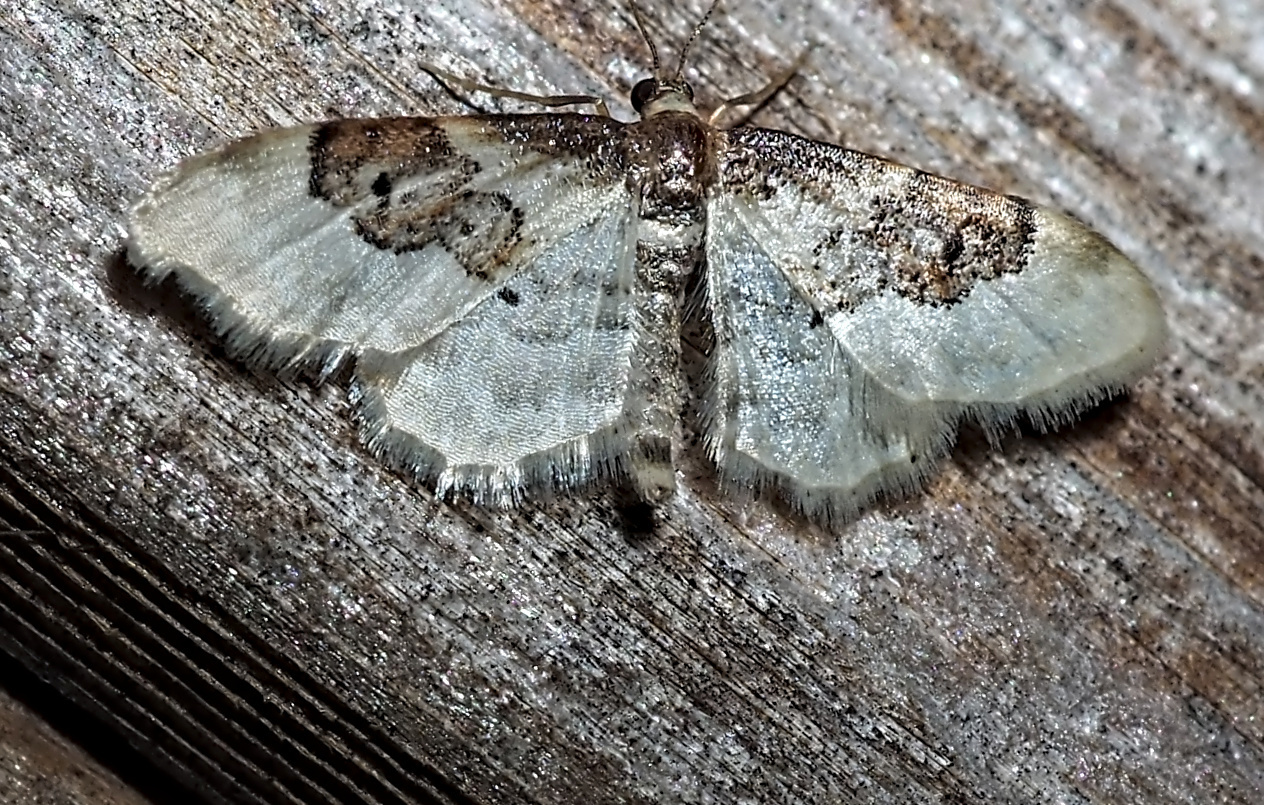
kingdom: Animalia
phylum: Arthropoda
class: Insecta
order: Lepidoptera
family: Geometridae
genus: Idaea
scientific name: Idaea rusticata
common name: Least carpet
